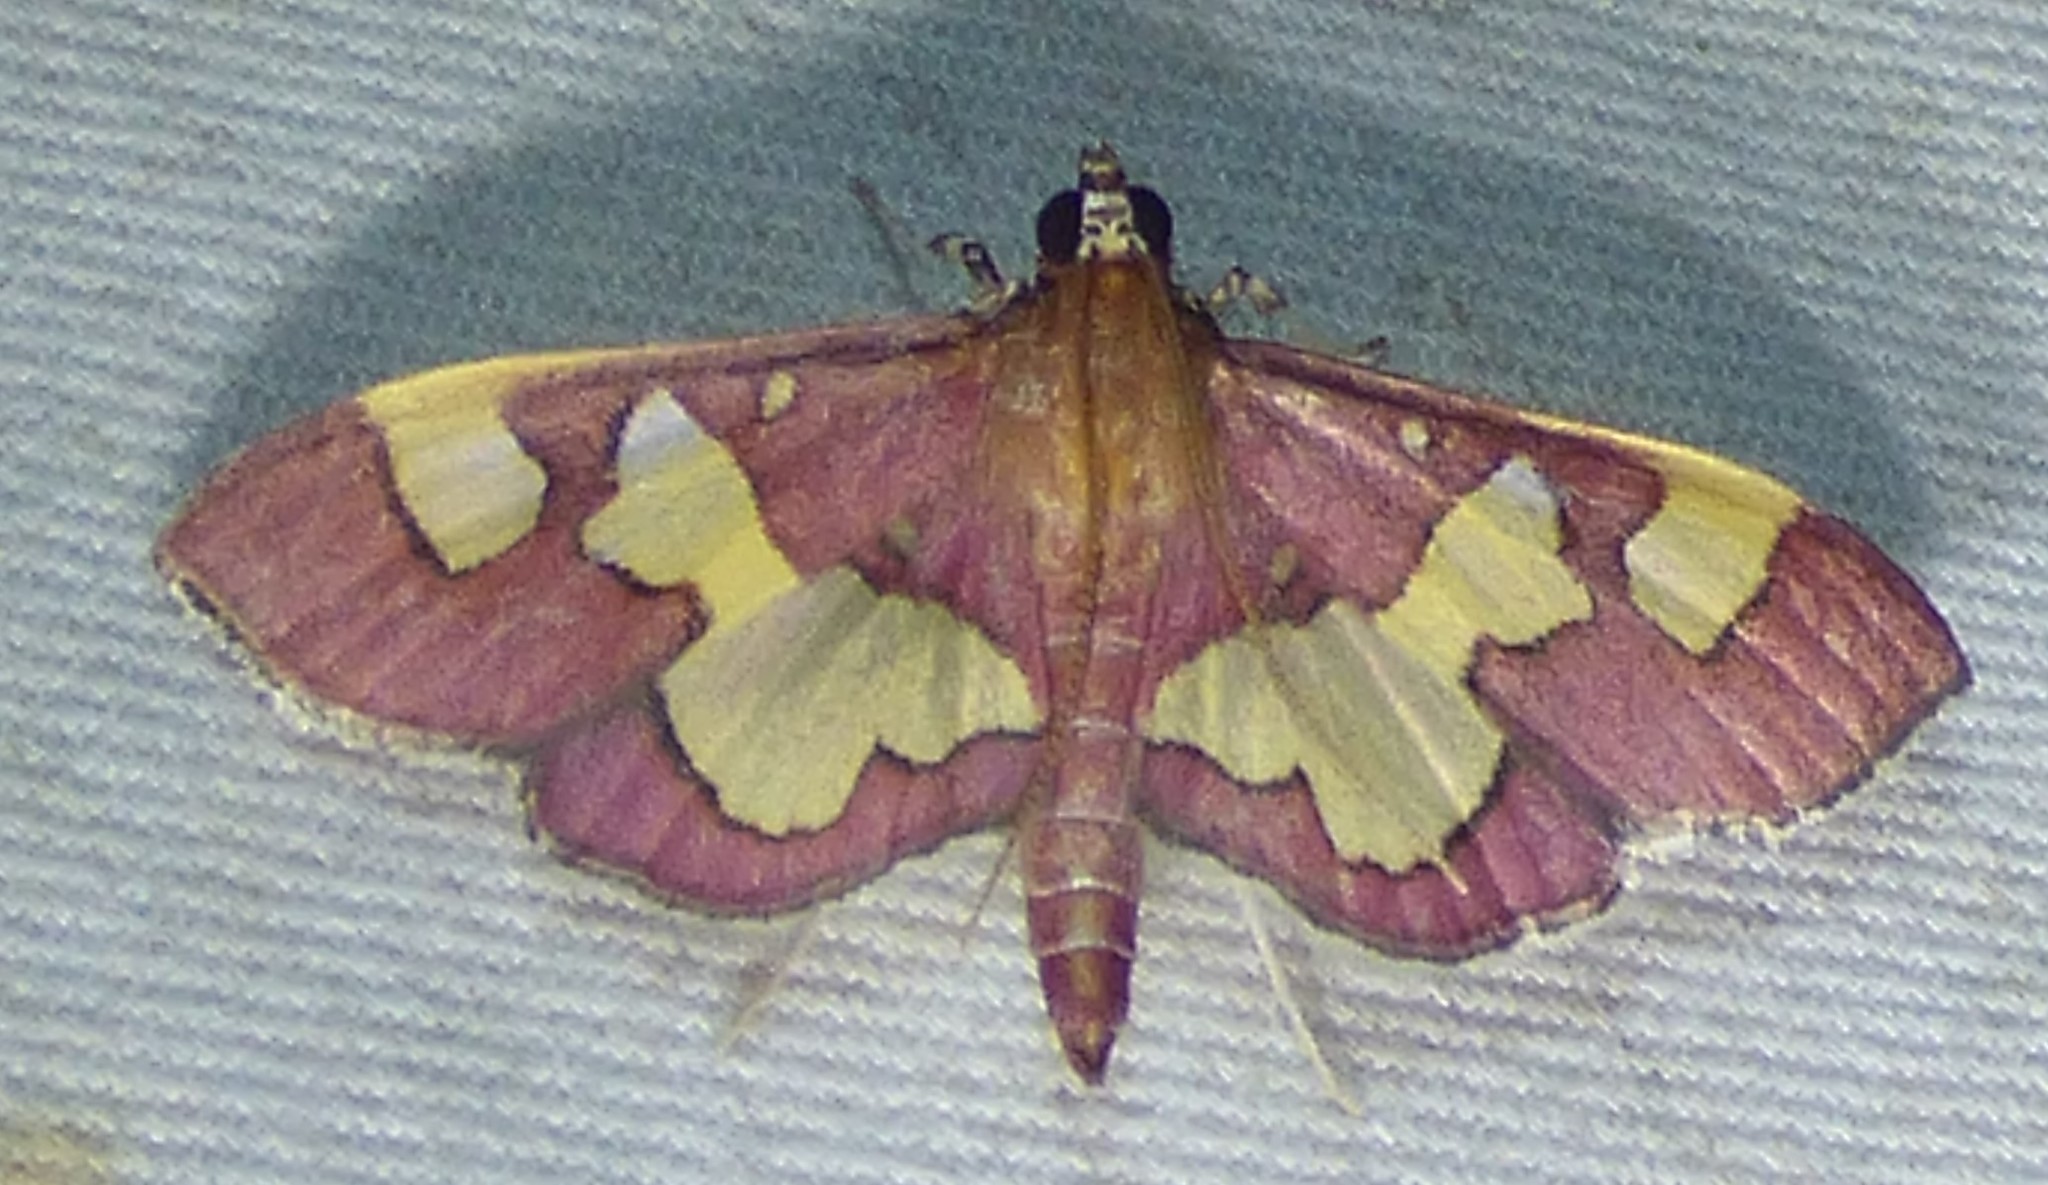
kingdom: Animalia
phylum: Arthropoda
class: Insecta
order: Lepidoptera
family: Crambidae
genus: Colomychus
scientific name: Colomychus talis
